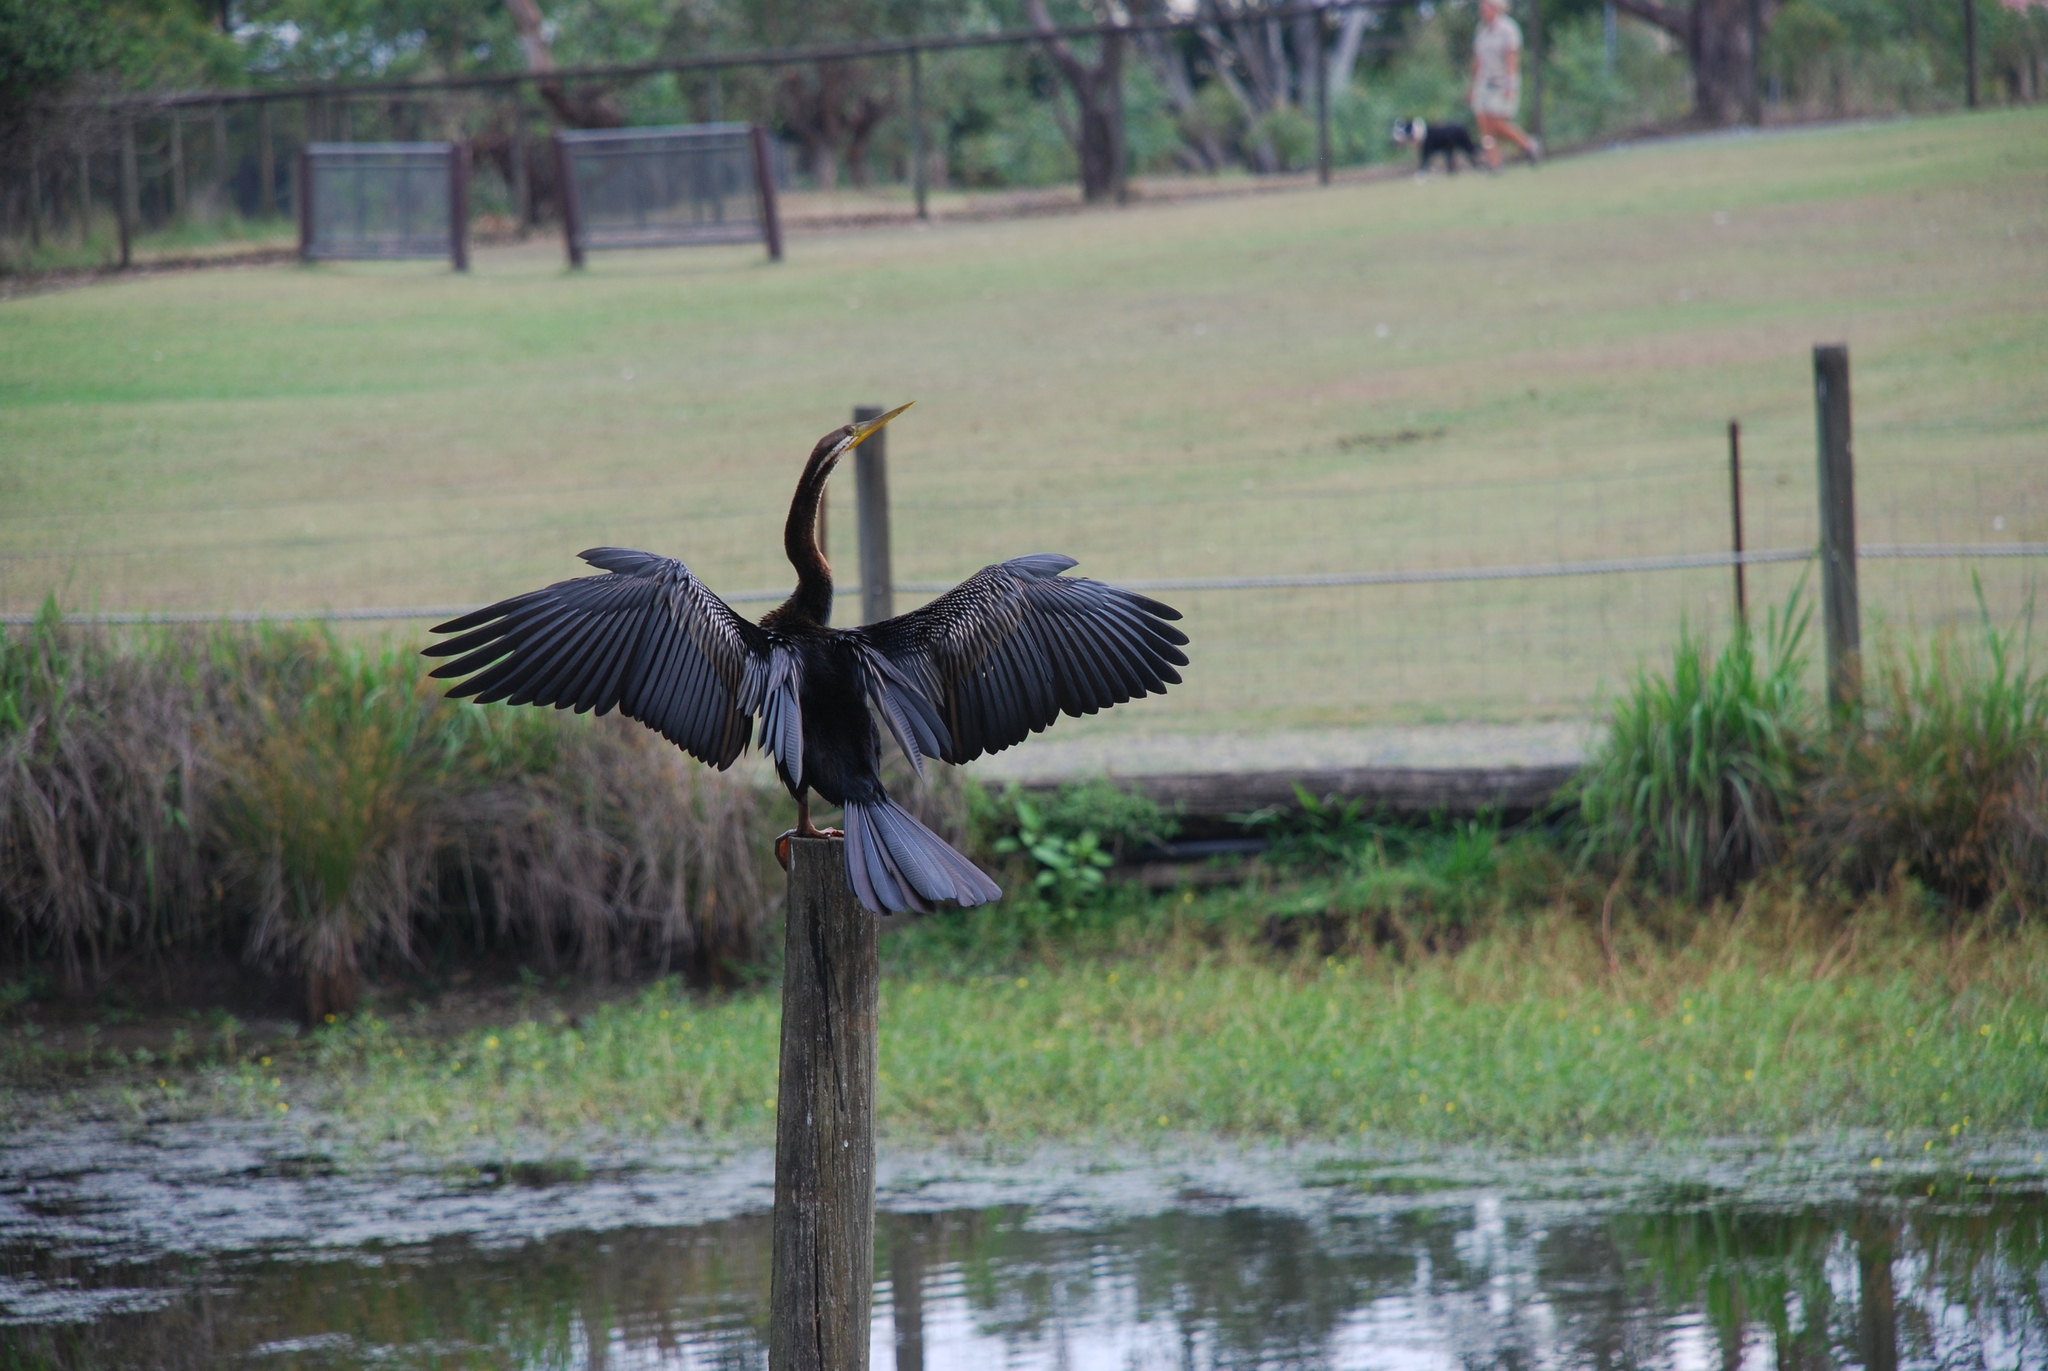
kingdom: Animalia
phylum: Chordata
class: Aves
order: Suliformes
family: Anhingidae
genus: Anhinga
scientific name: Anhinga novaehollandiae
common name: Australasian darter
